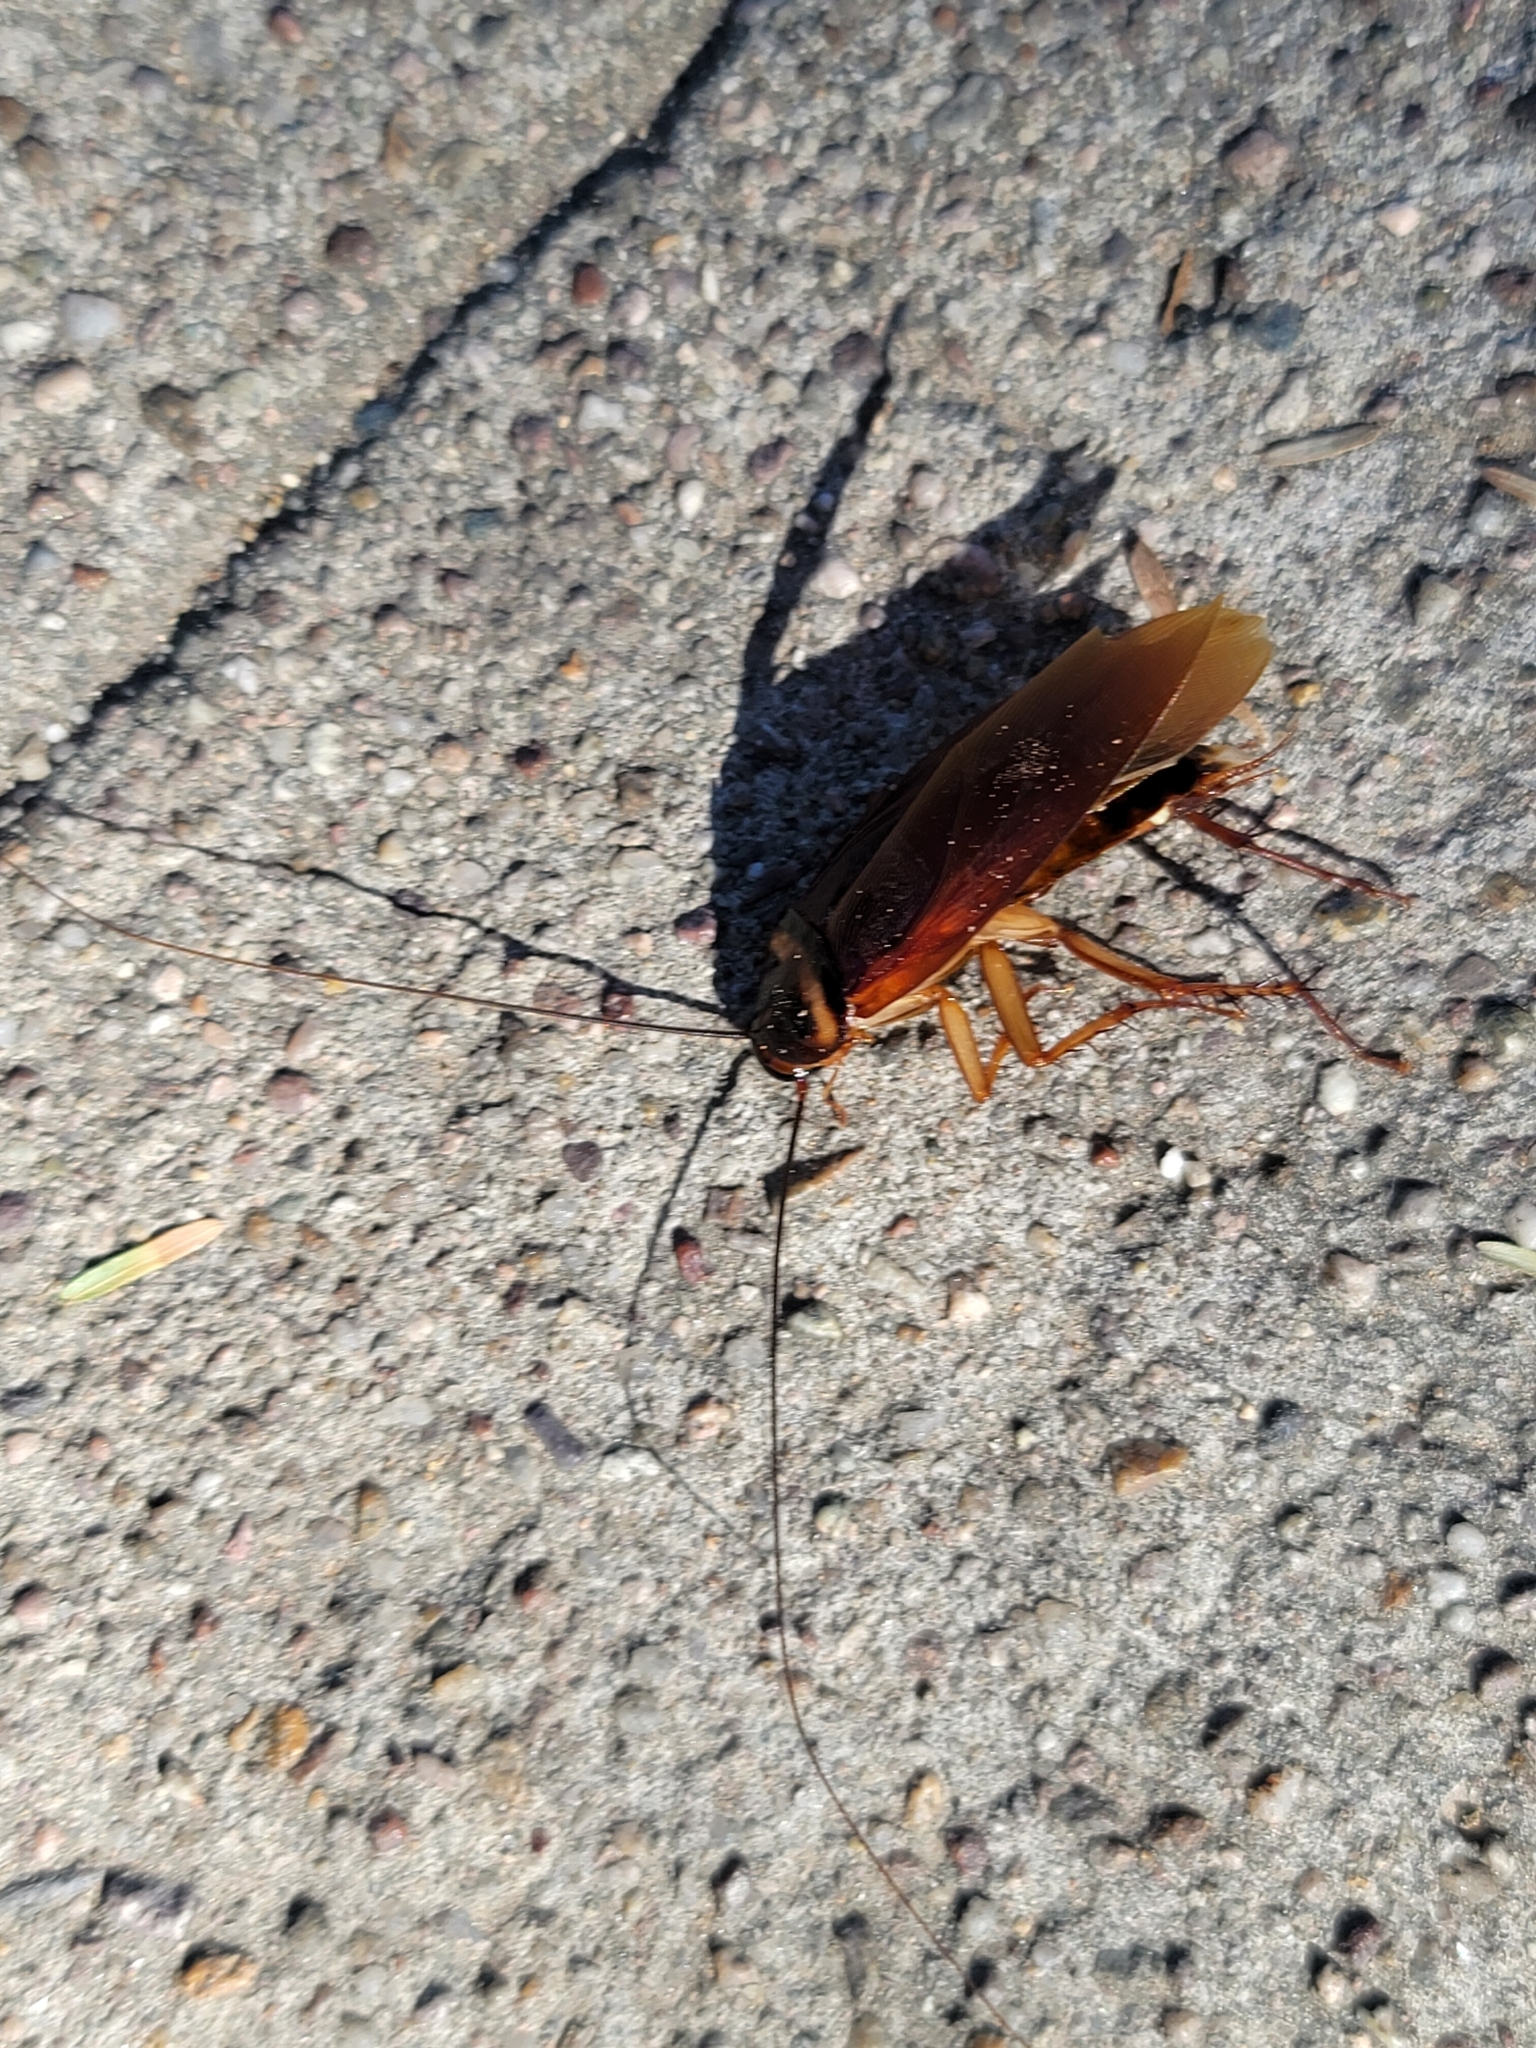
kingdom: Animalia
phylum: Arthropoda
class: Insecta
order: Blattodea
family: Blattidae
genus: Periplaneta
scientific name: Periplaneta americana
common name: American cockroach
